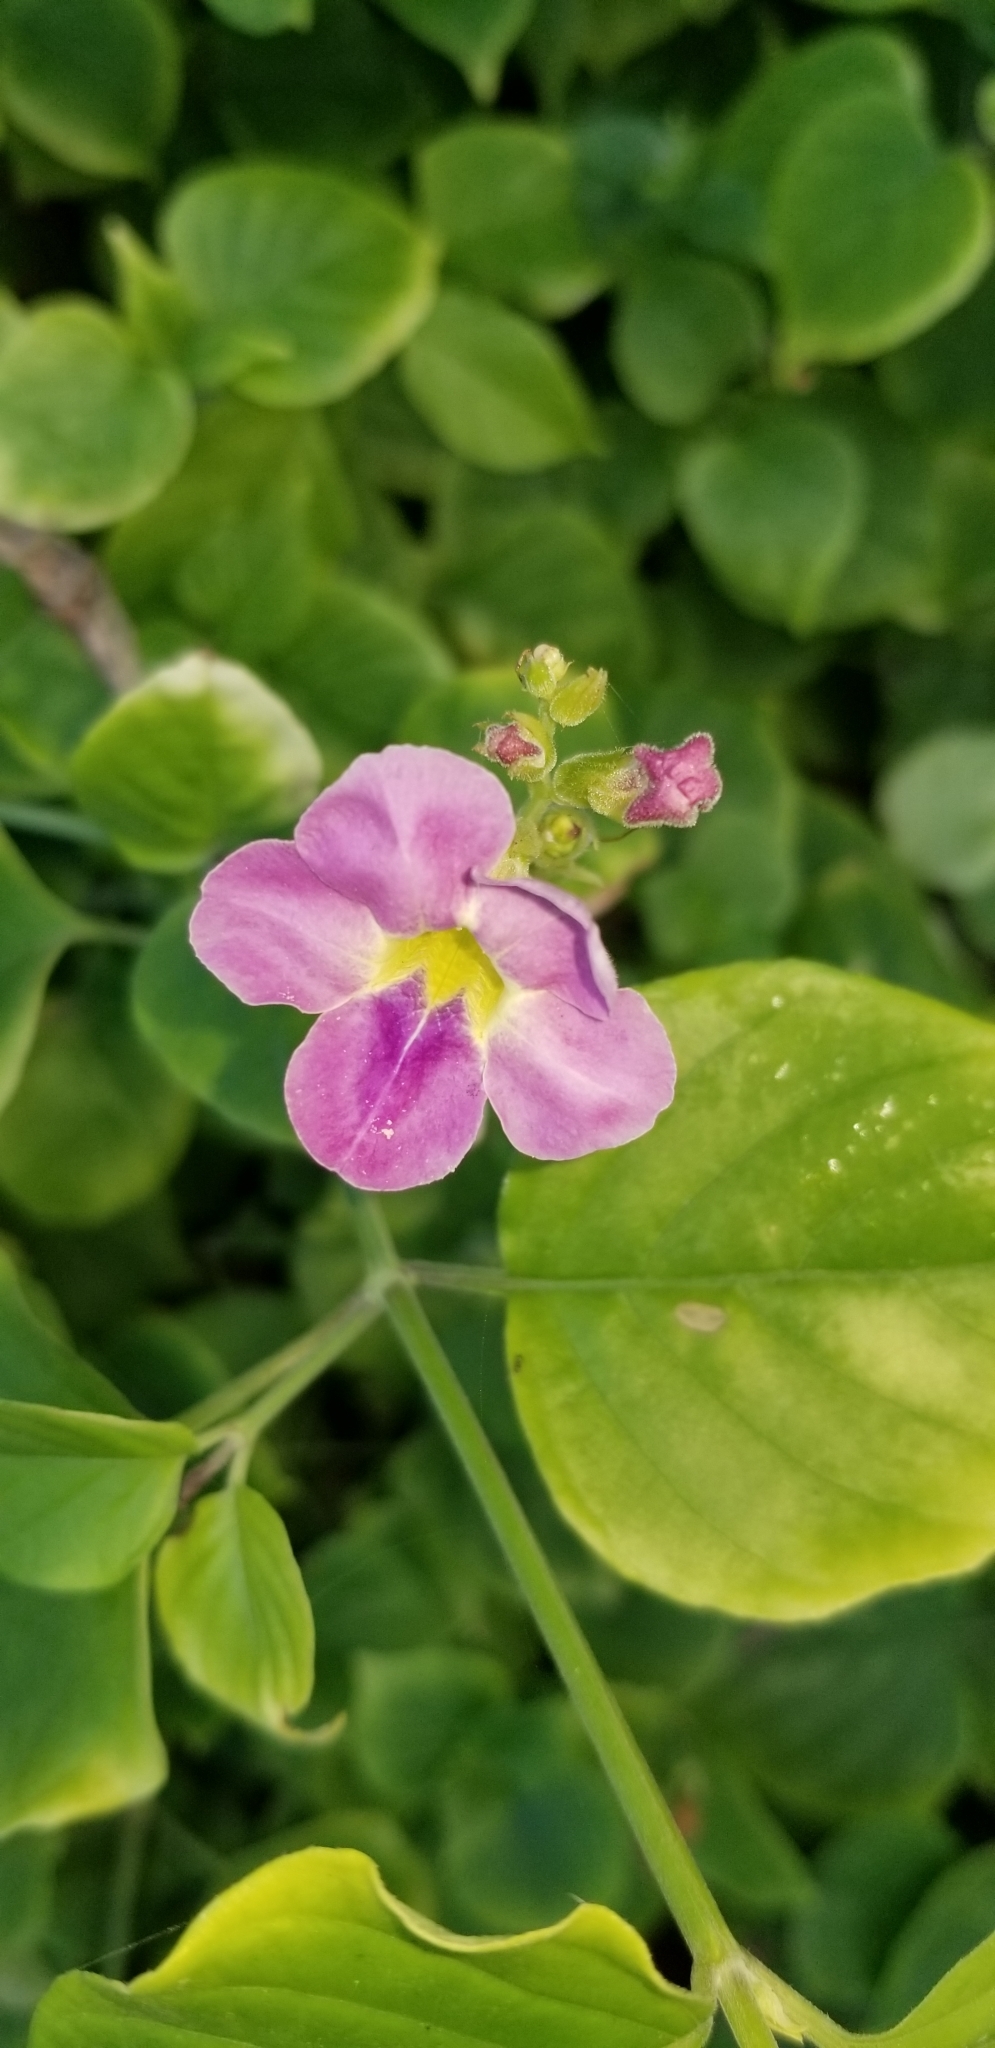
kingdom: Plantae
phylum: Tracheophyta
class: Magnoliopsida
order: Lamiales
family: Acanthaceae
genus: Asystasia
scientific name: Asystasia gangetica
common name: Chinese violet
